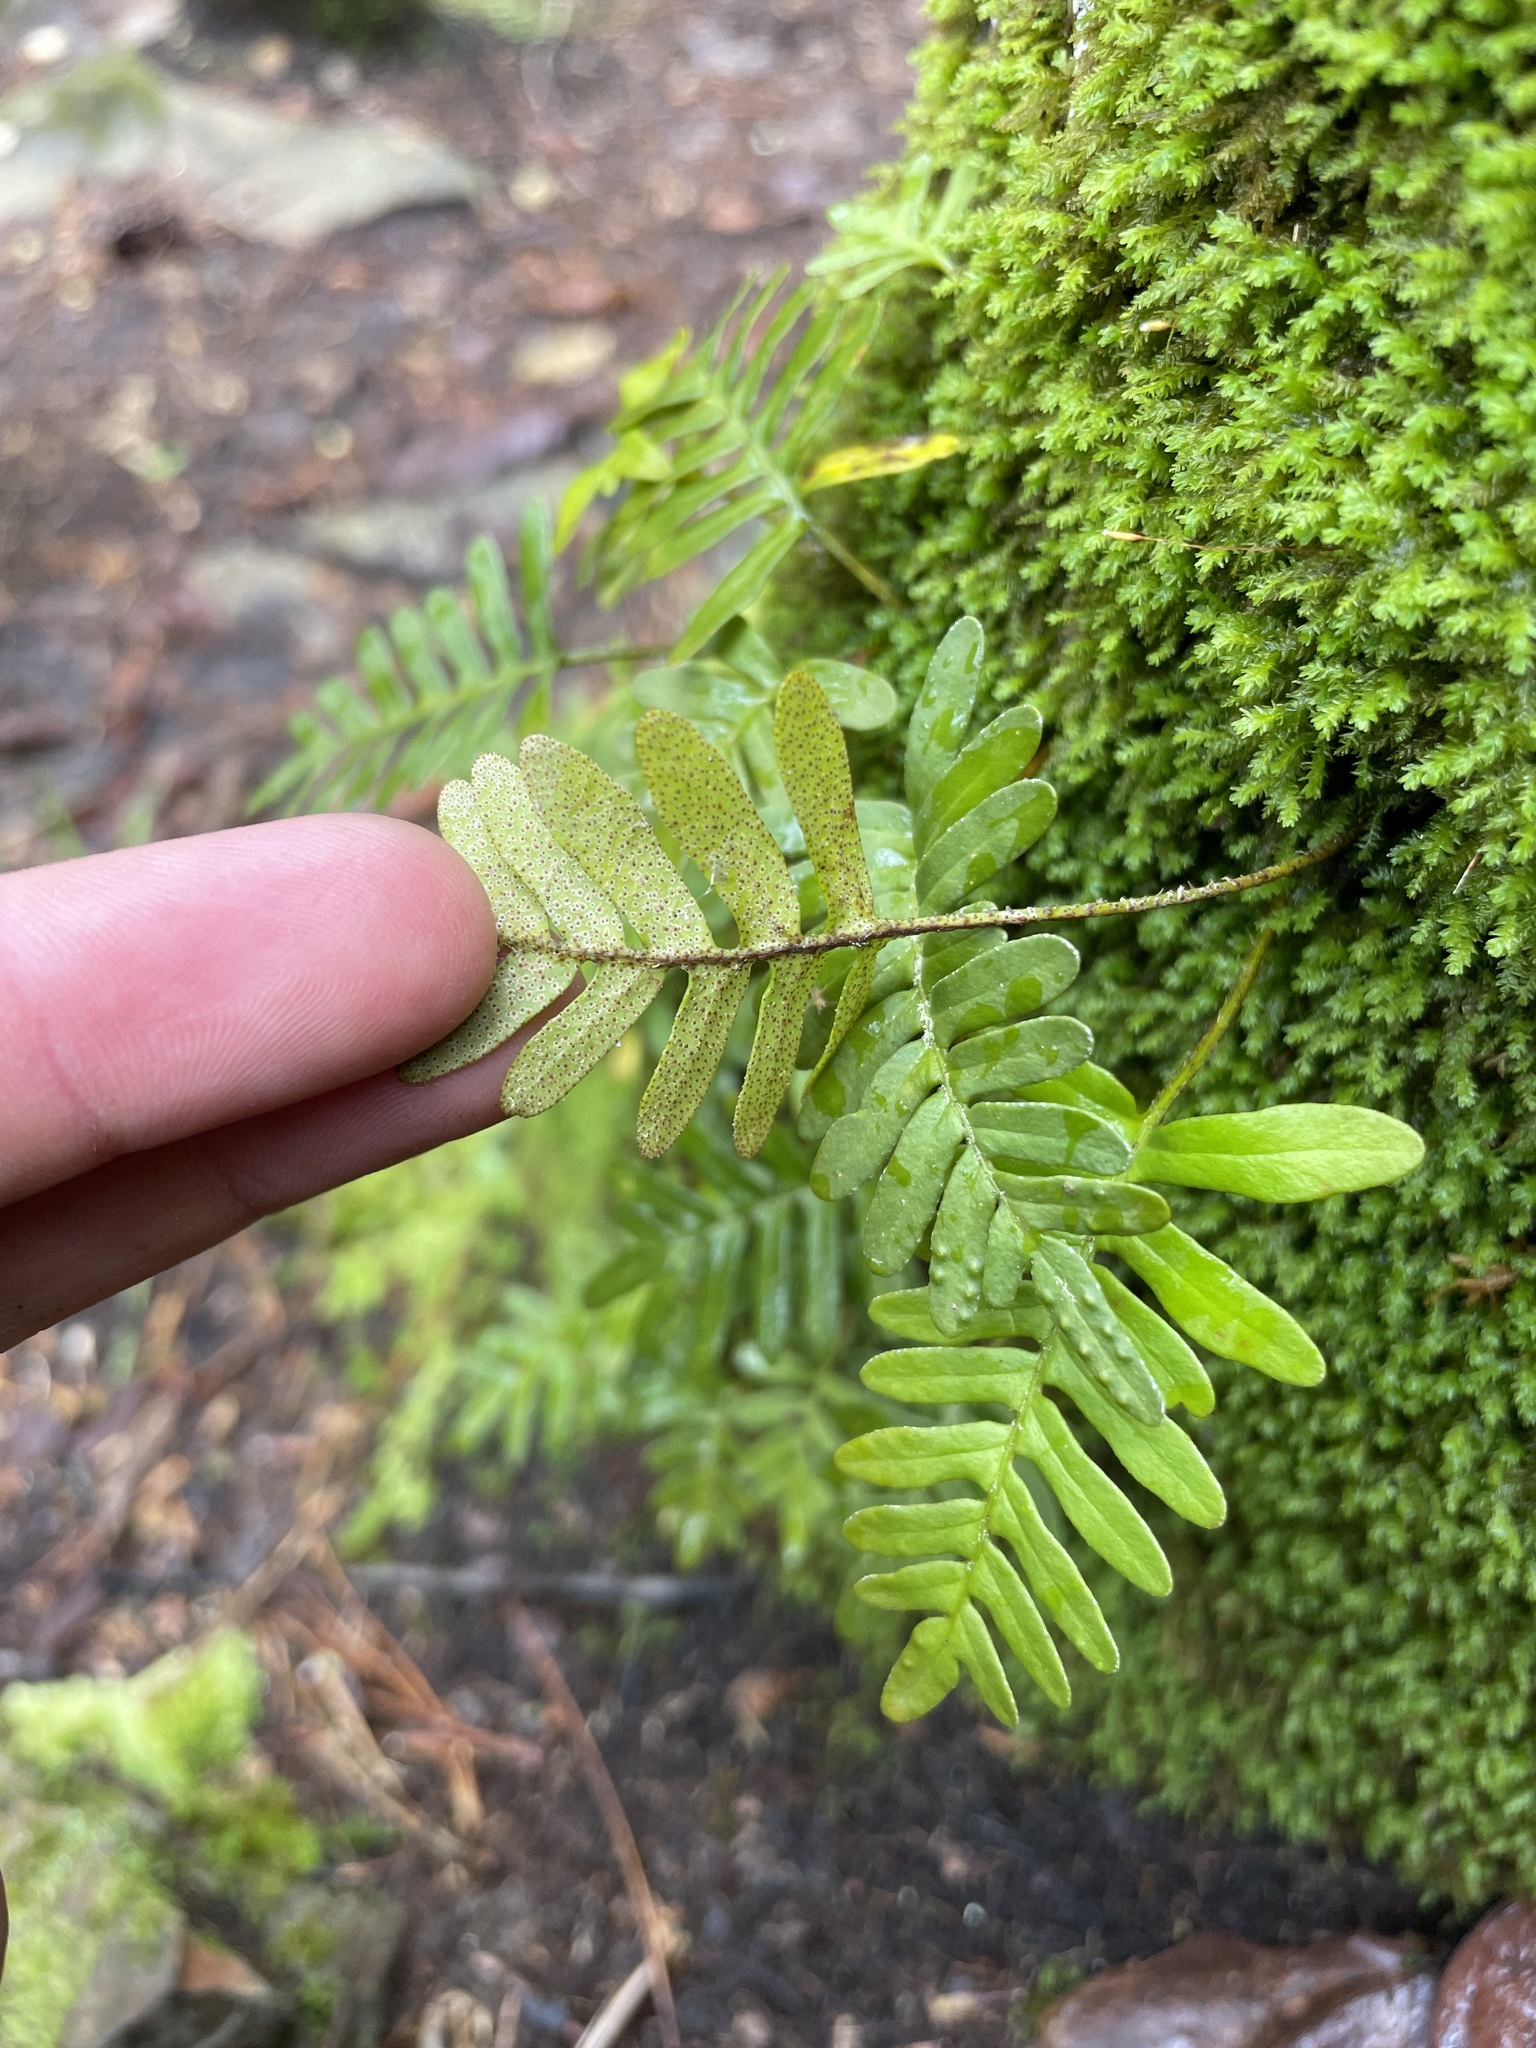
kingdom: Plantae
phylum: Tracheophyta
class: Polypodiopsida
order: Polypodiales
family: Polypodiaceae
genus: Pleopeltis
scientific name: Pleopeltis michauxiana
